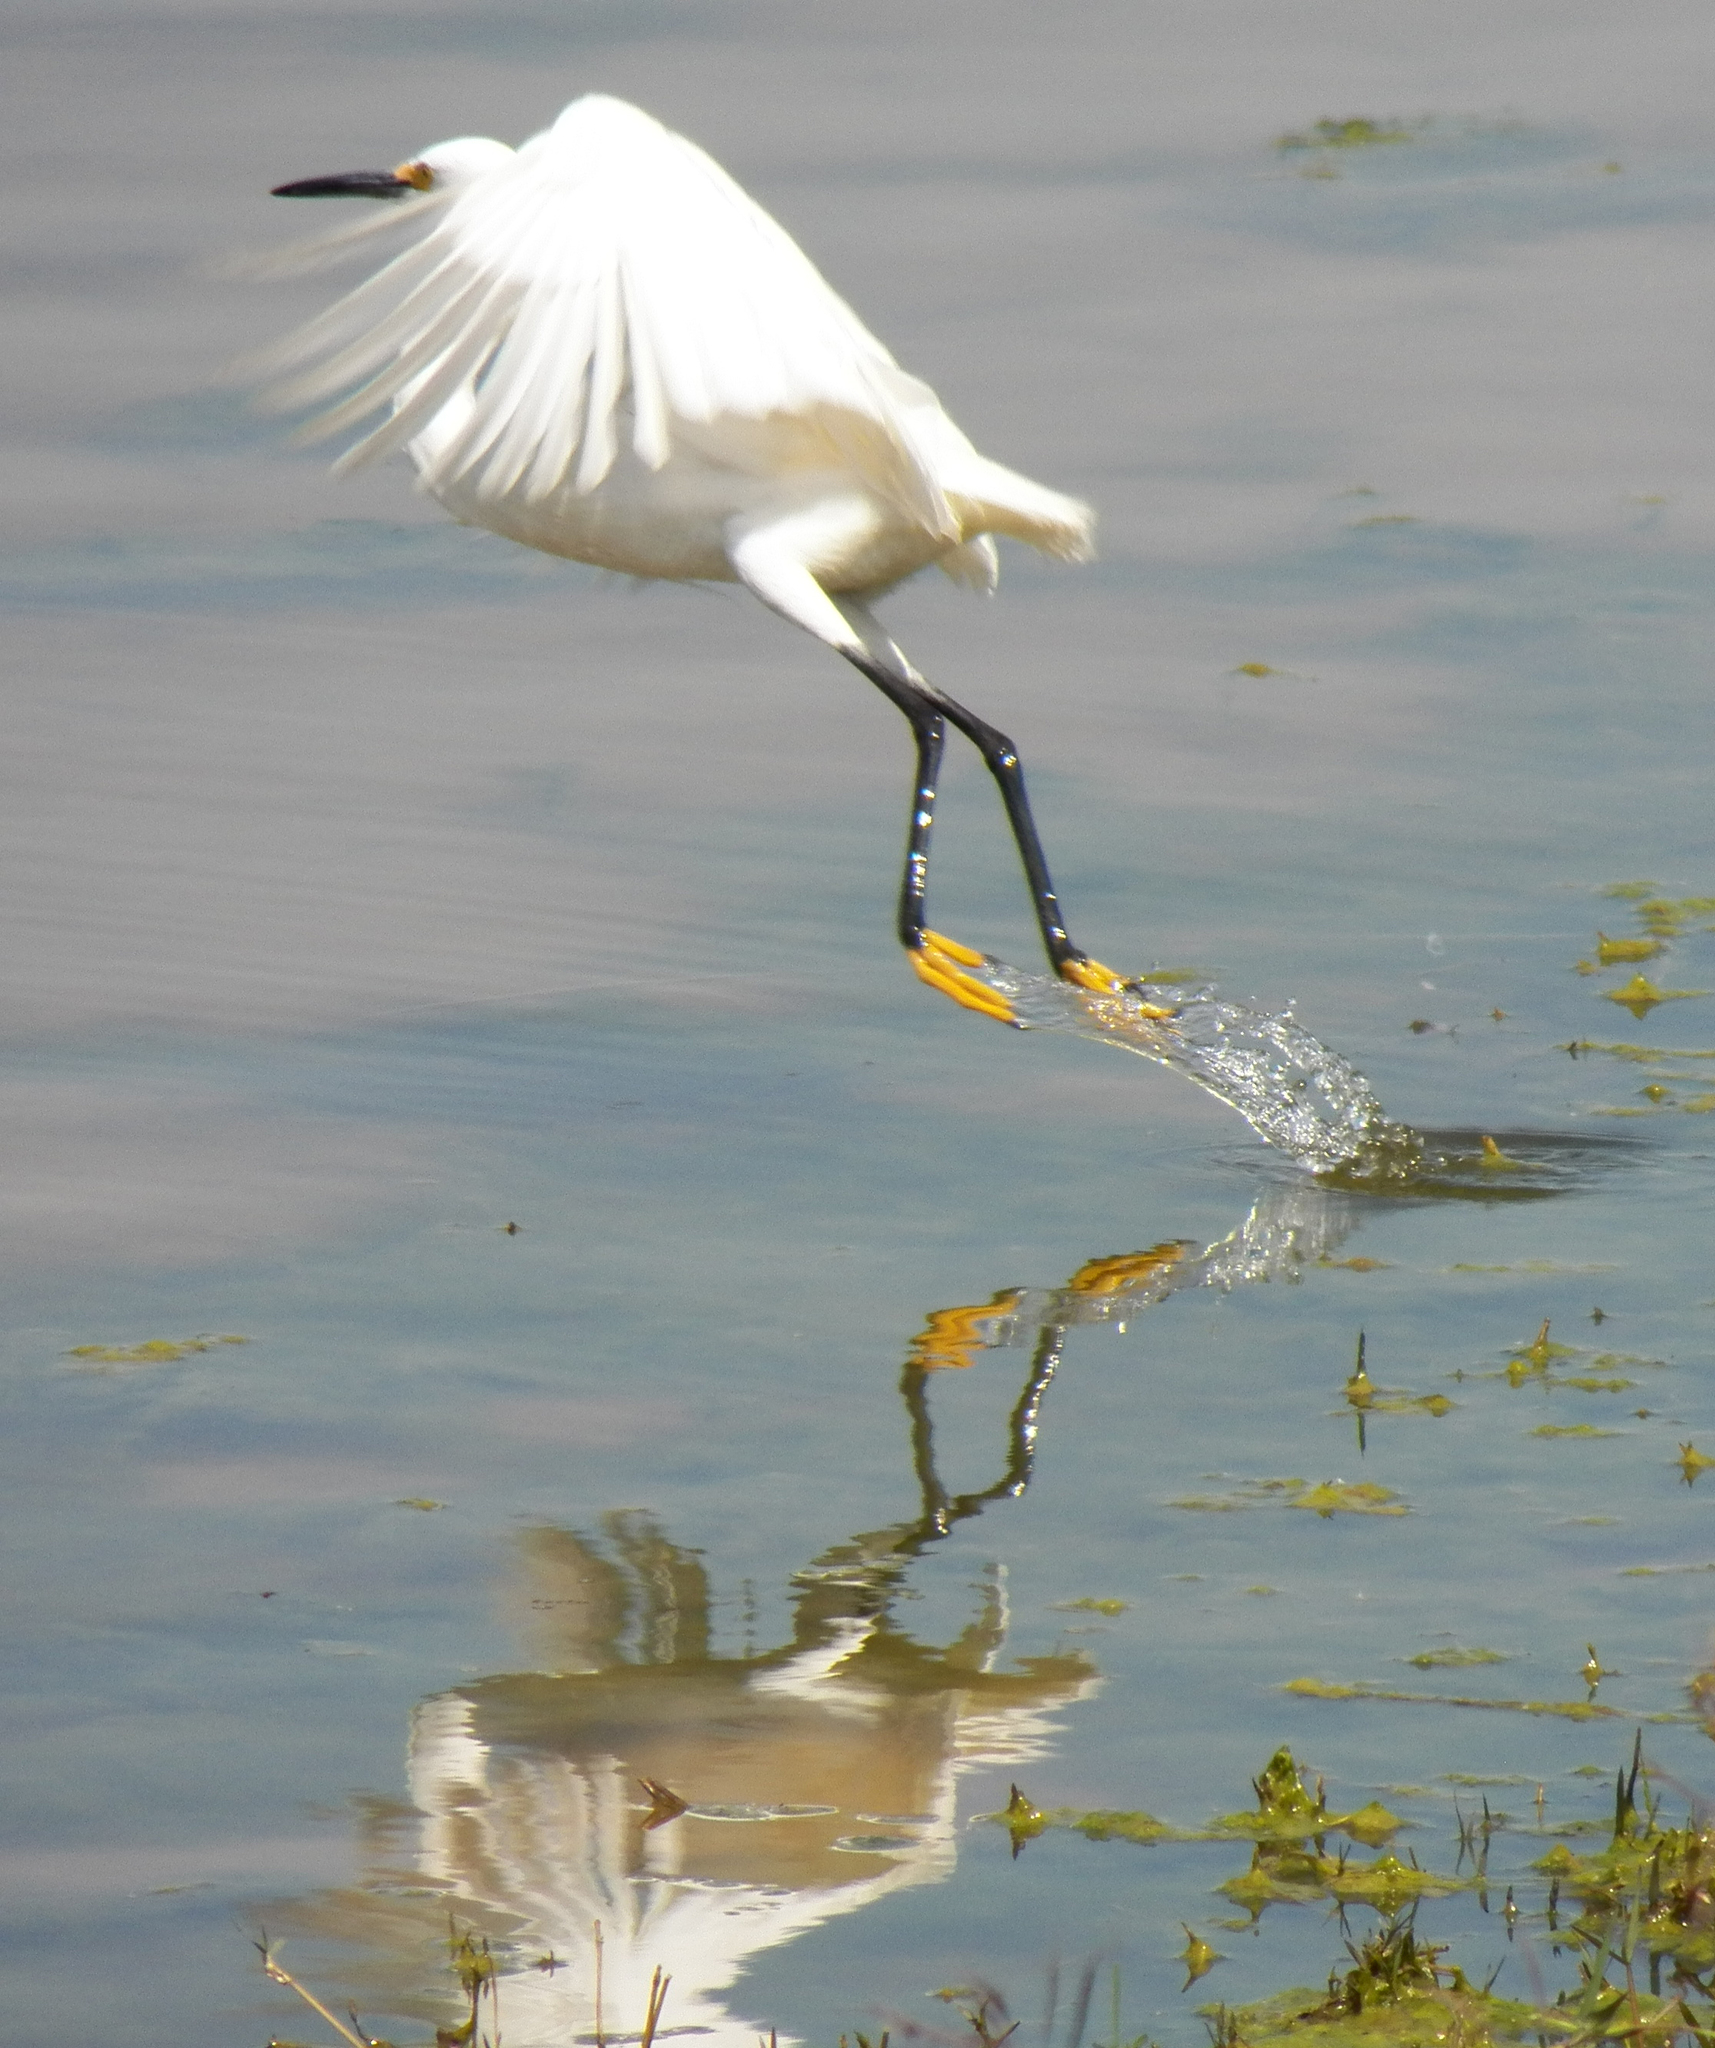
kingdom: Animalia
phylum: Chordata
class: Aves
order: Pelecaniformes
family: Ardeidae
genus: Egretta
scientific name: Egretta thula
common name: Snowy egret
